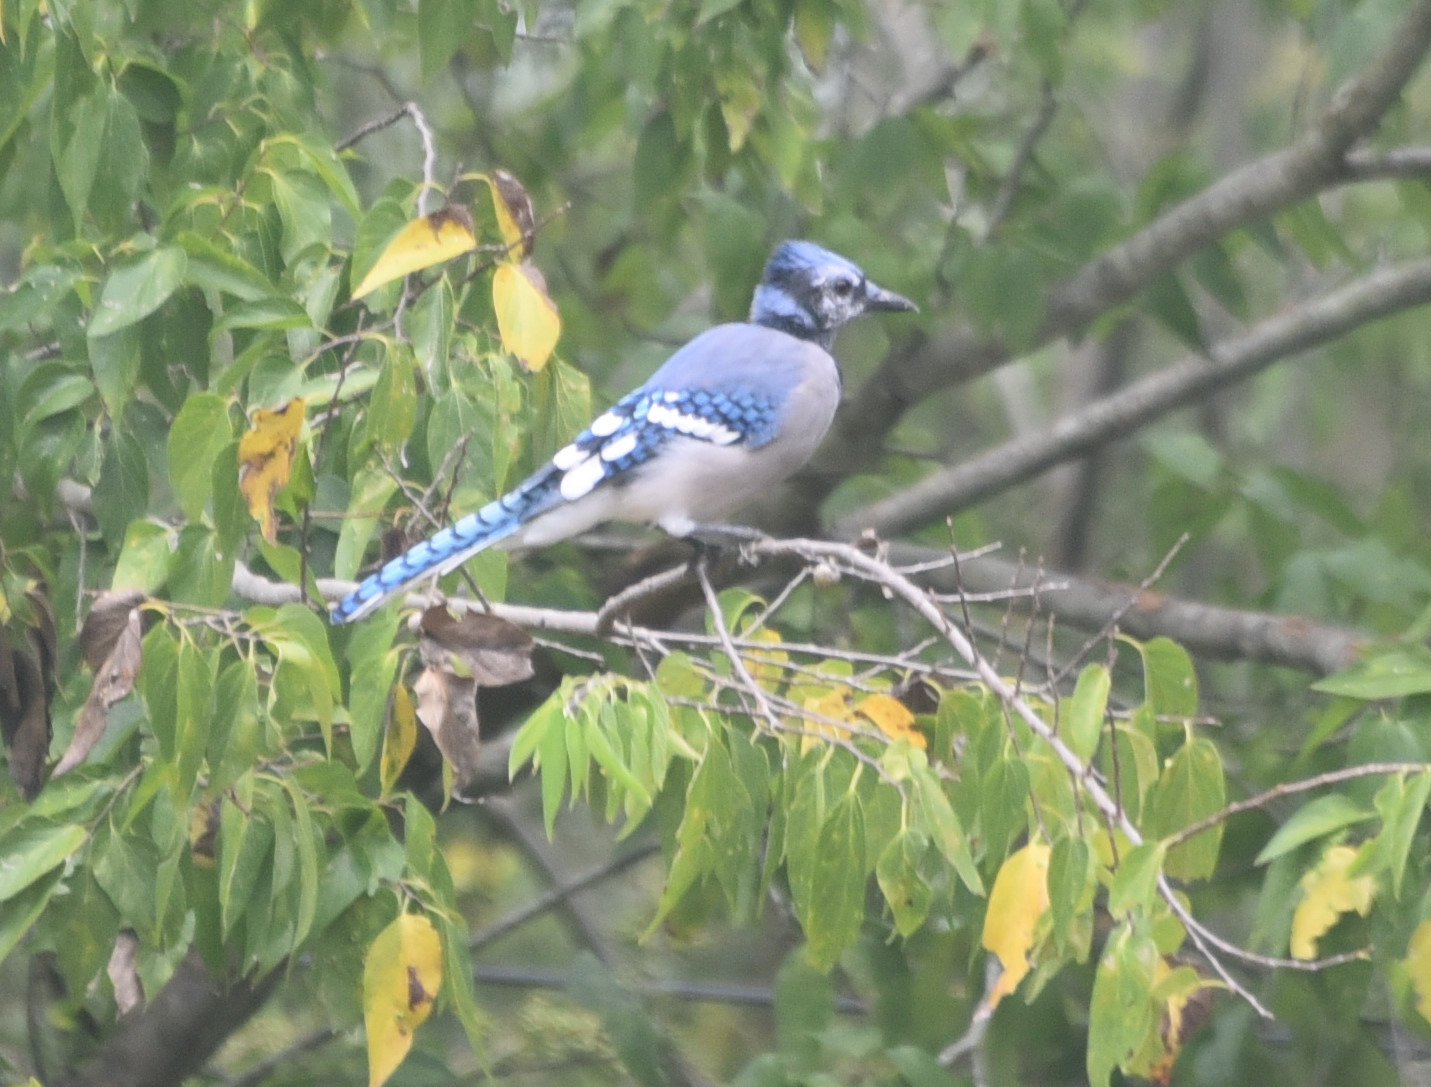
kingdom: Animalia
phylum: Chordata
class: Aves
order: Passeriformes
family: Corvidae
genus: Cyanocitta
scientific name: Cyanocitta cristata
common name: Blue jay
